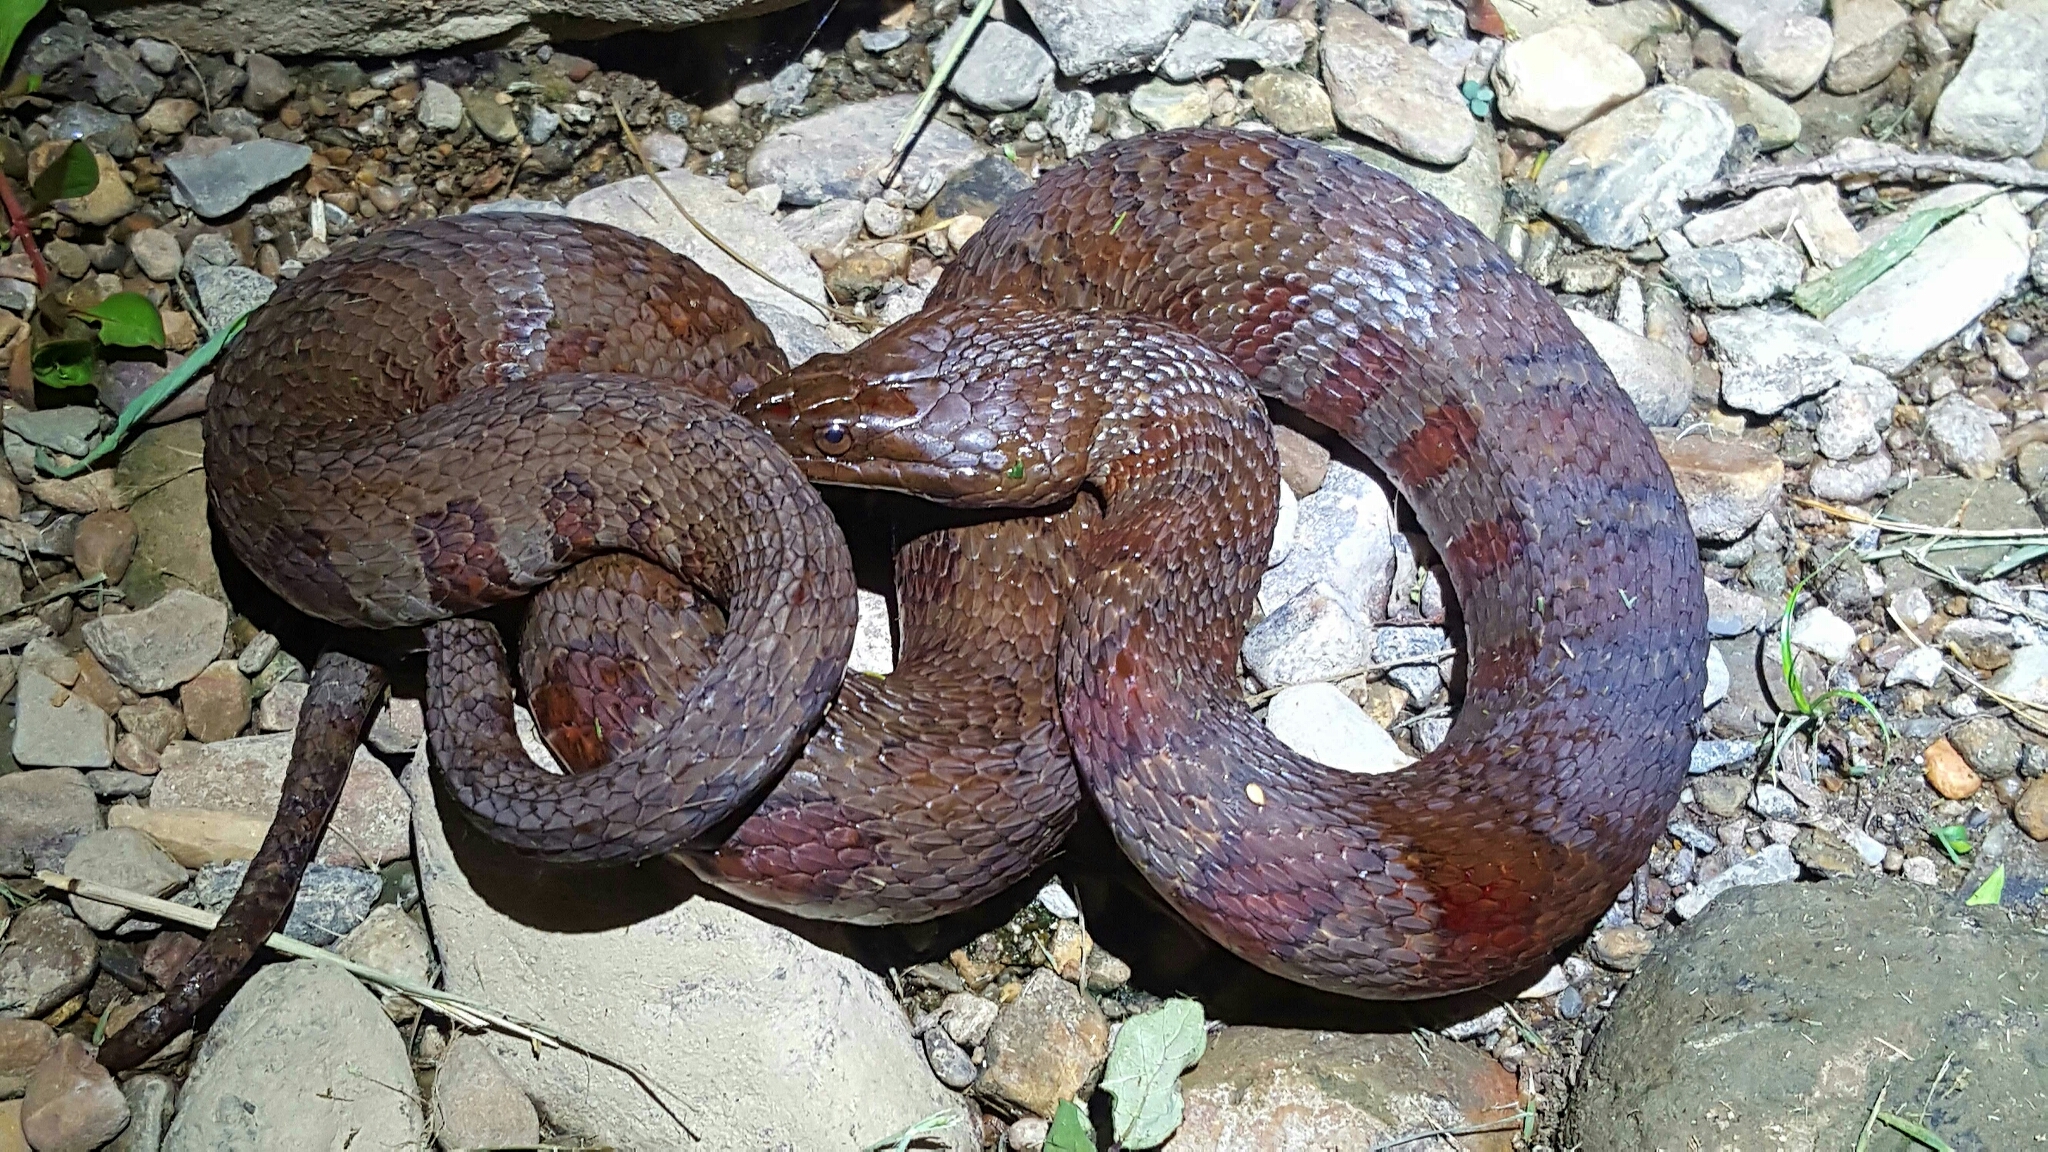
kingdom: Animalia
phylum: Chordata
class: Squamata
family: Colubridae
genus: Nerodia
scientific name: Nerodia sipedon
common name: Northern water snake
